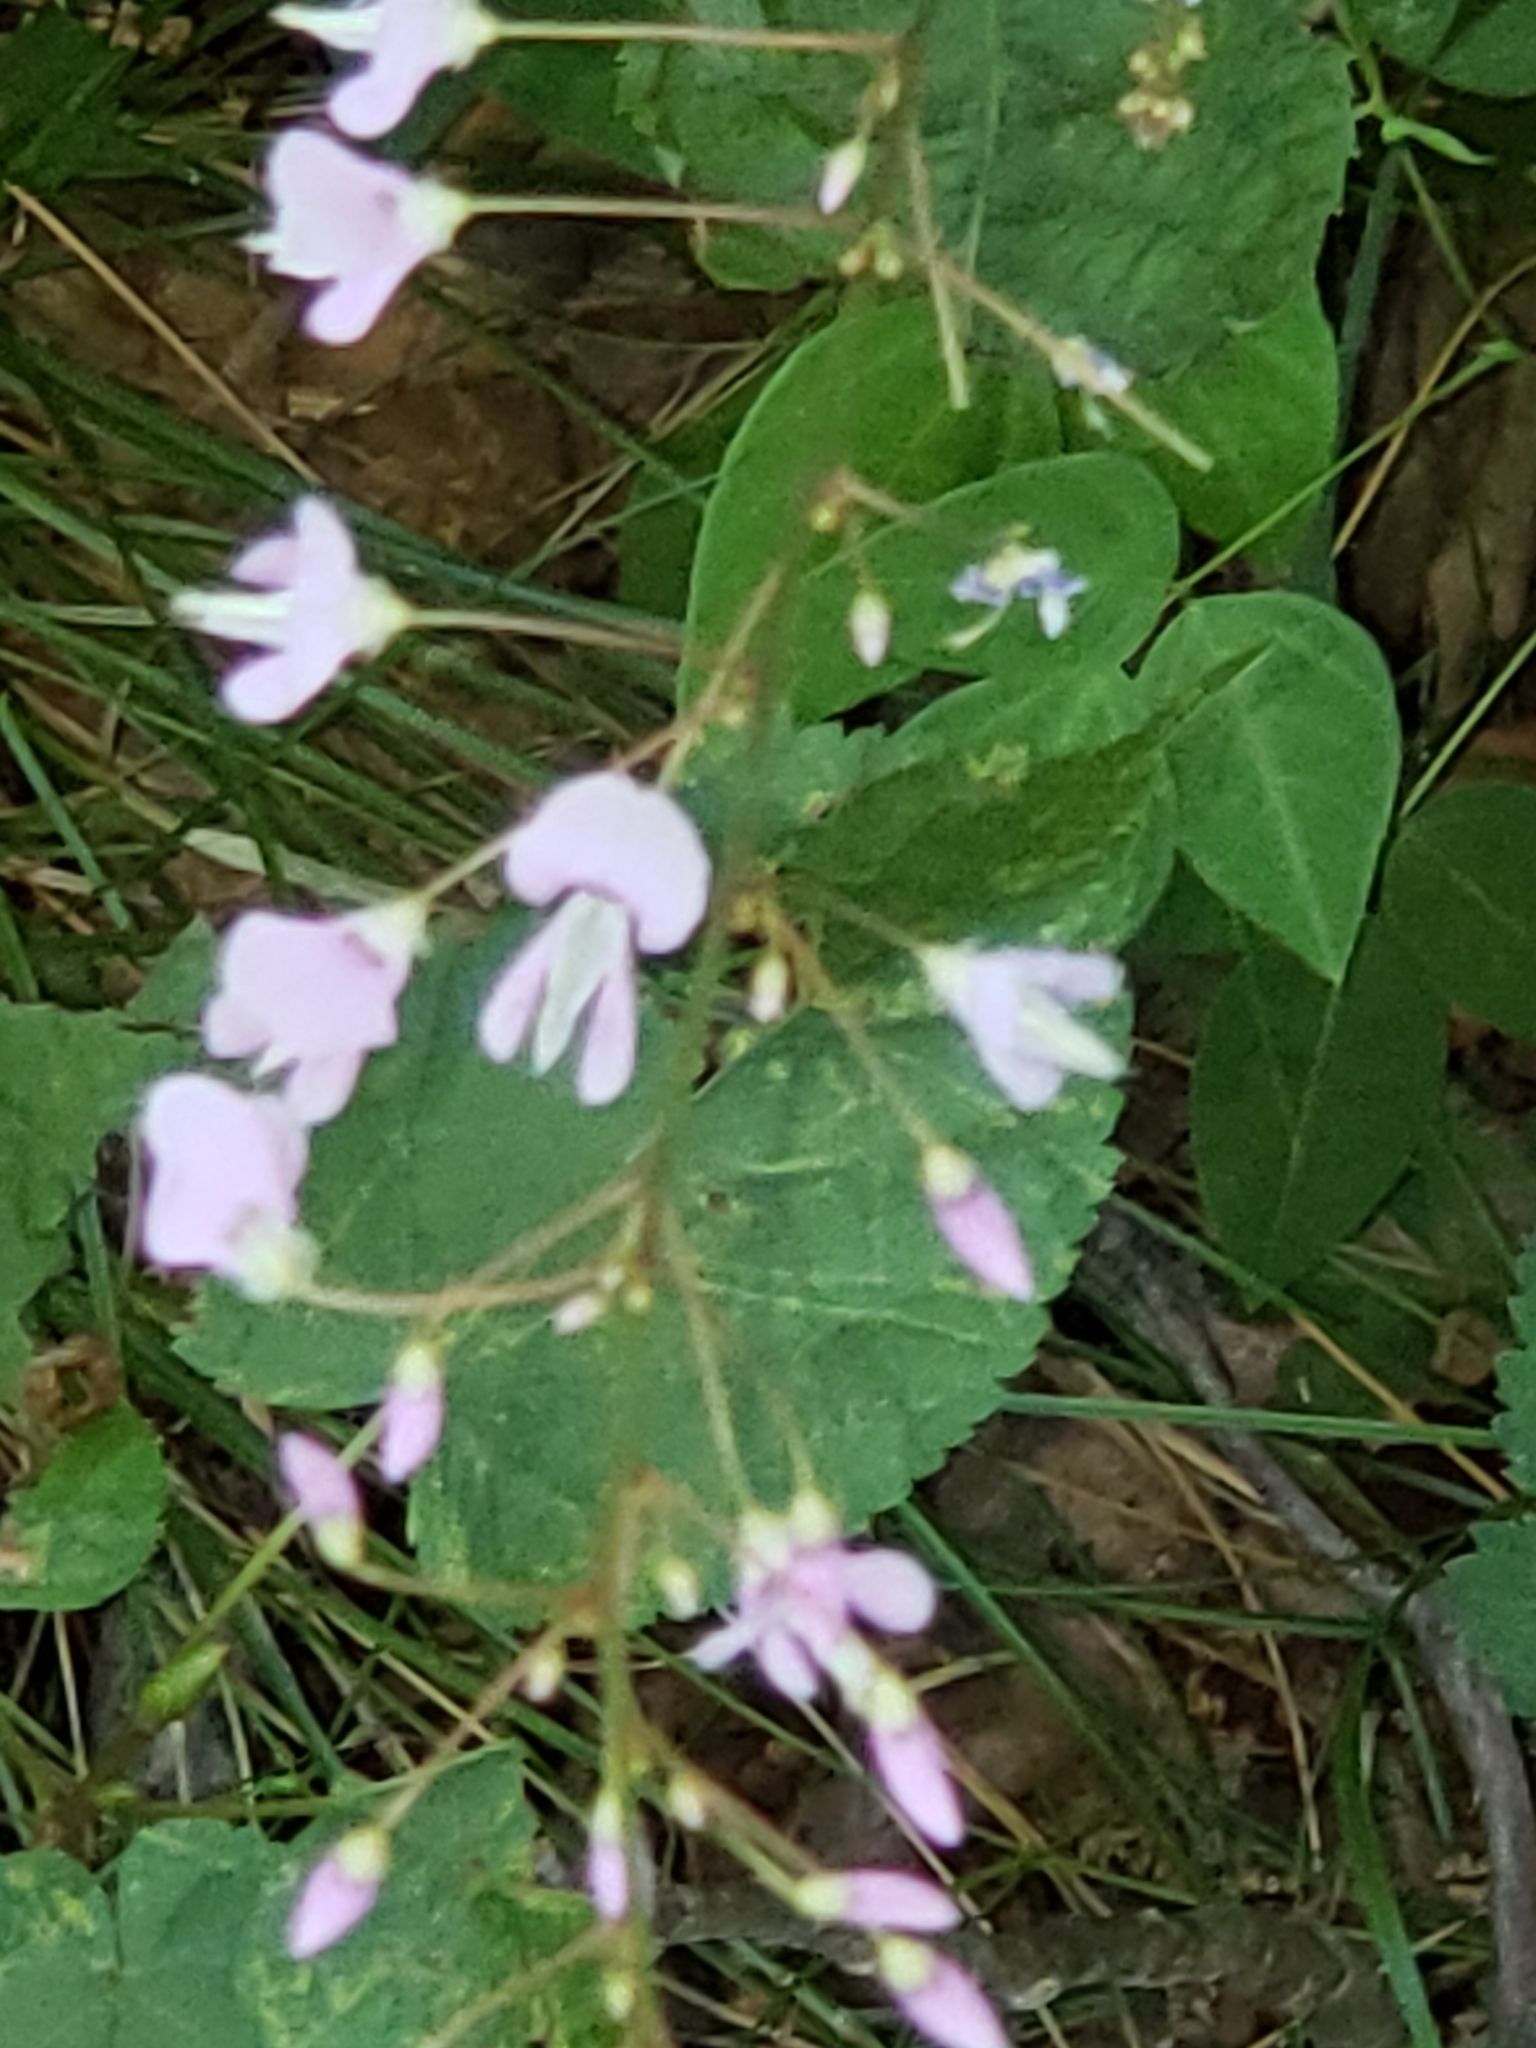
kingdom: Plantae
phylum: Tracheophyta
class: Magnoliopsida
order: Fabales
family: Fabaceae
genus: Hylodesmum
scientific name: Hylodesmum nudiflorum
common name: Bare-stemmed tick-trefoil
